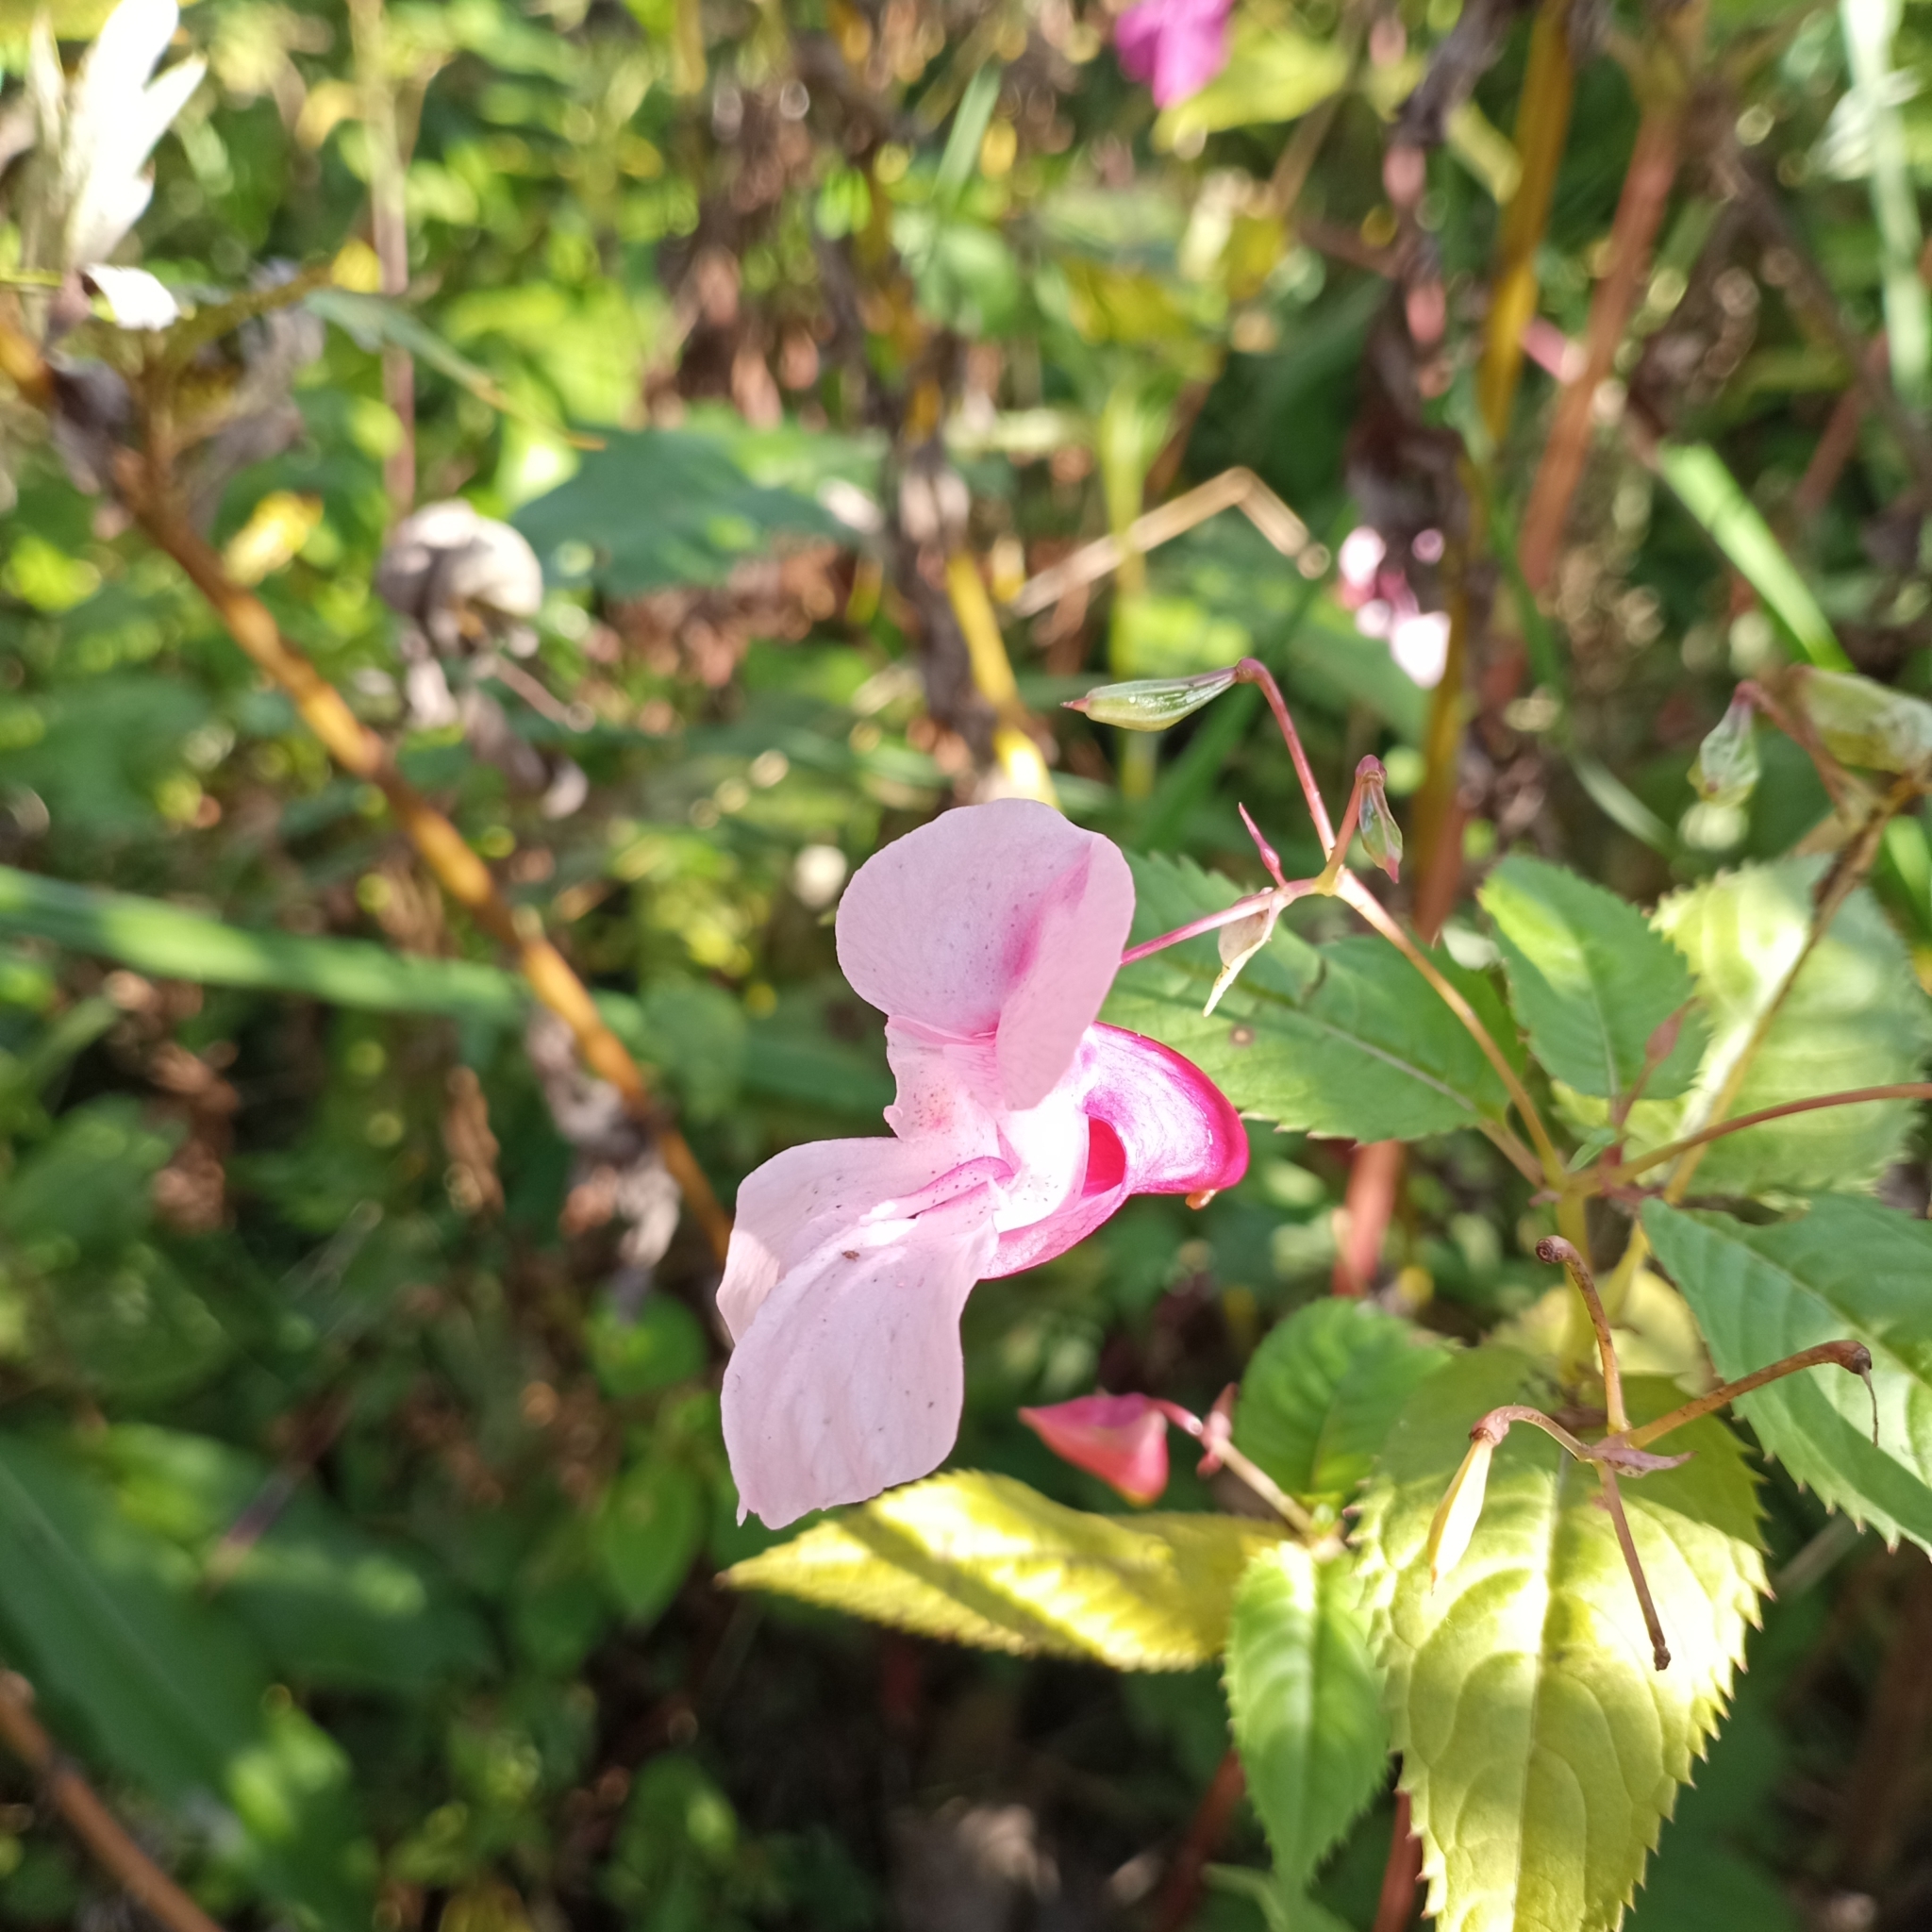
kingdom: Plantae
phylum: Tracheophyta
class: Magnoliopsida
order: Ericales
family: Balsaminaceae
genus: Impatiens
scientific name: Impatiens glandulifera
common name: Himalayan balsam
